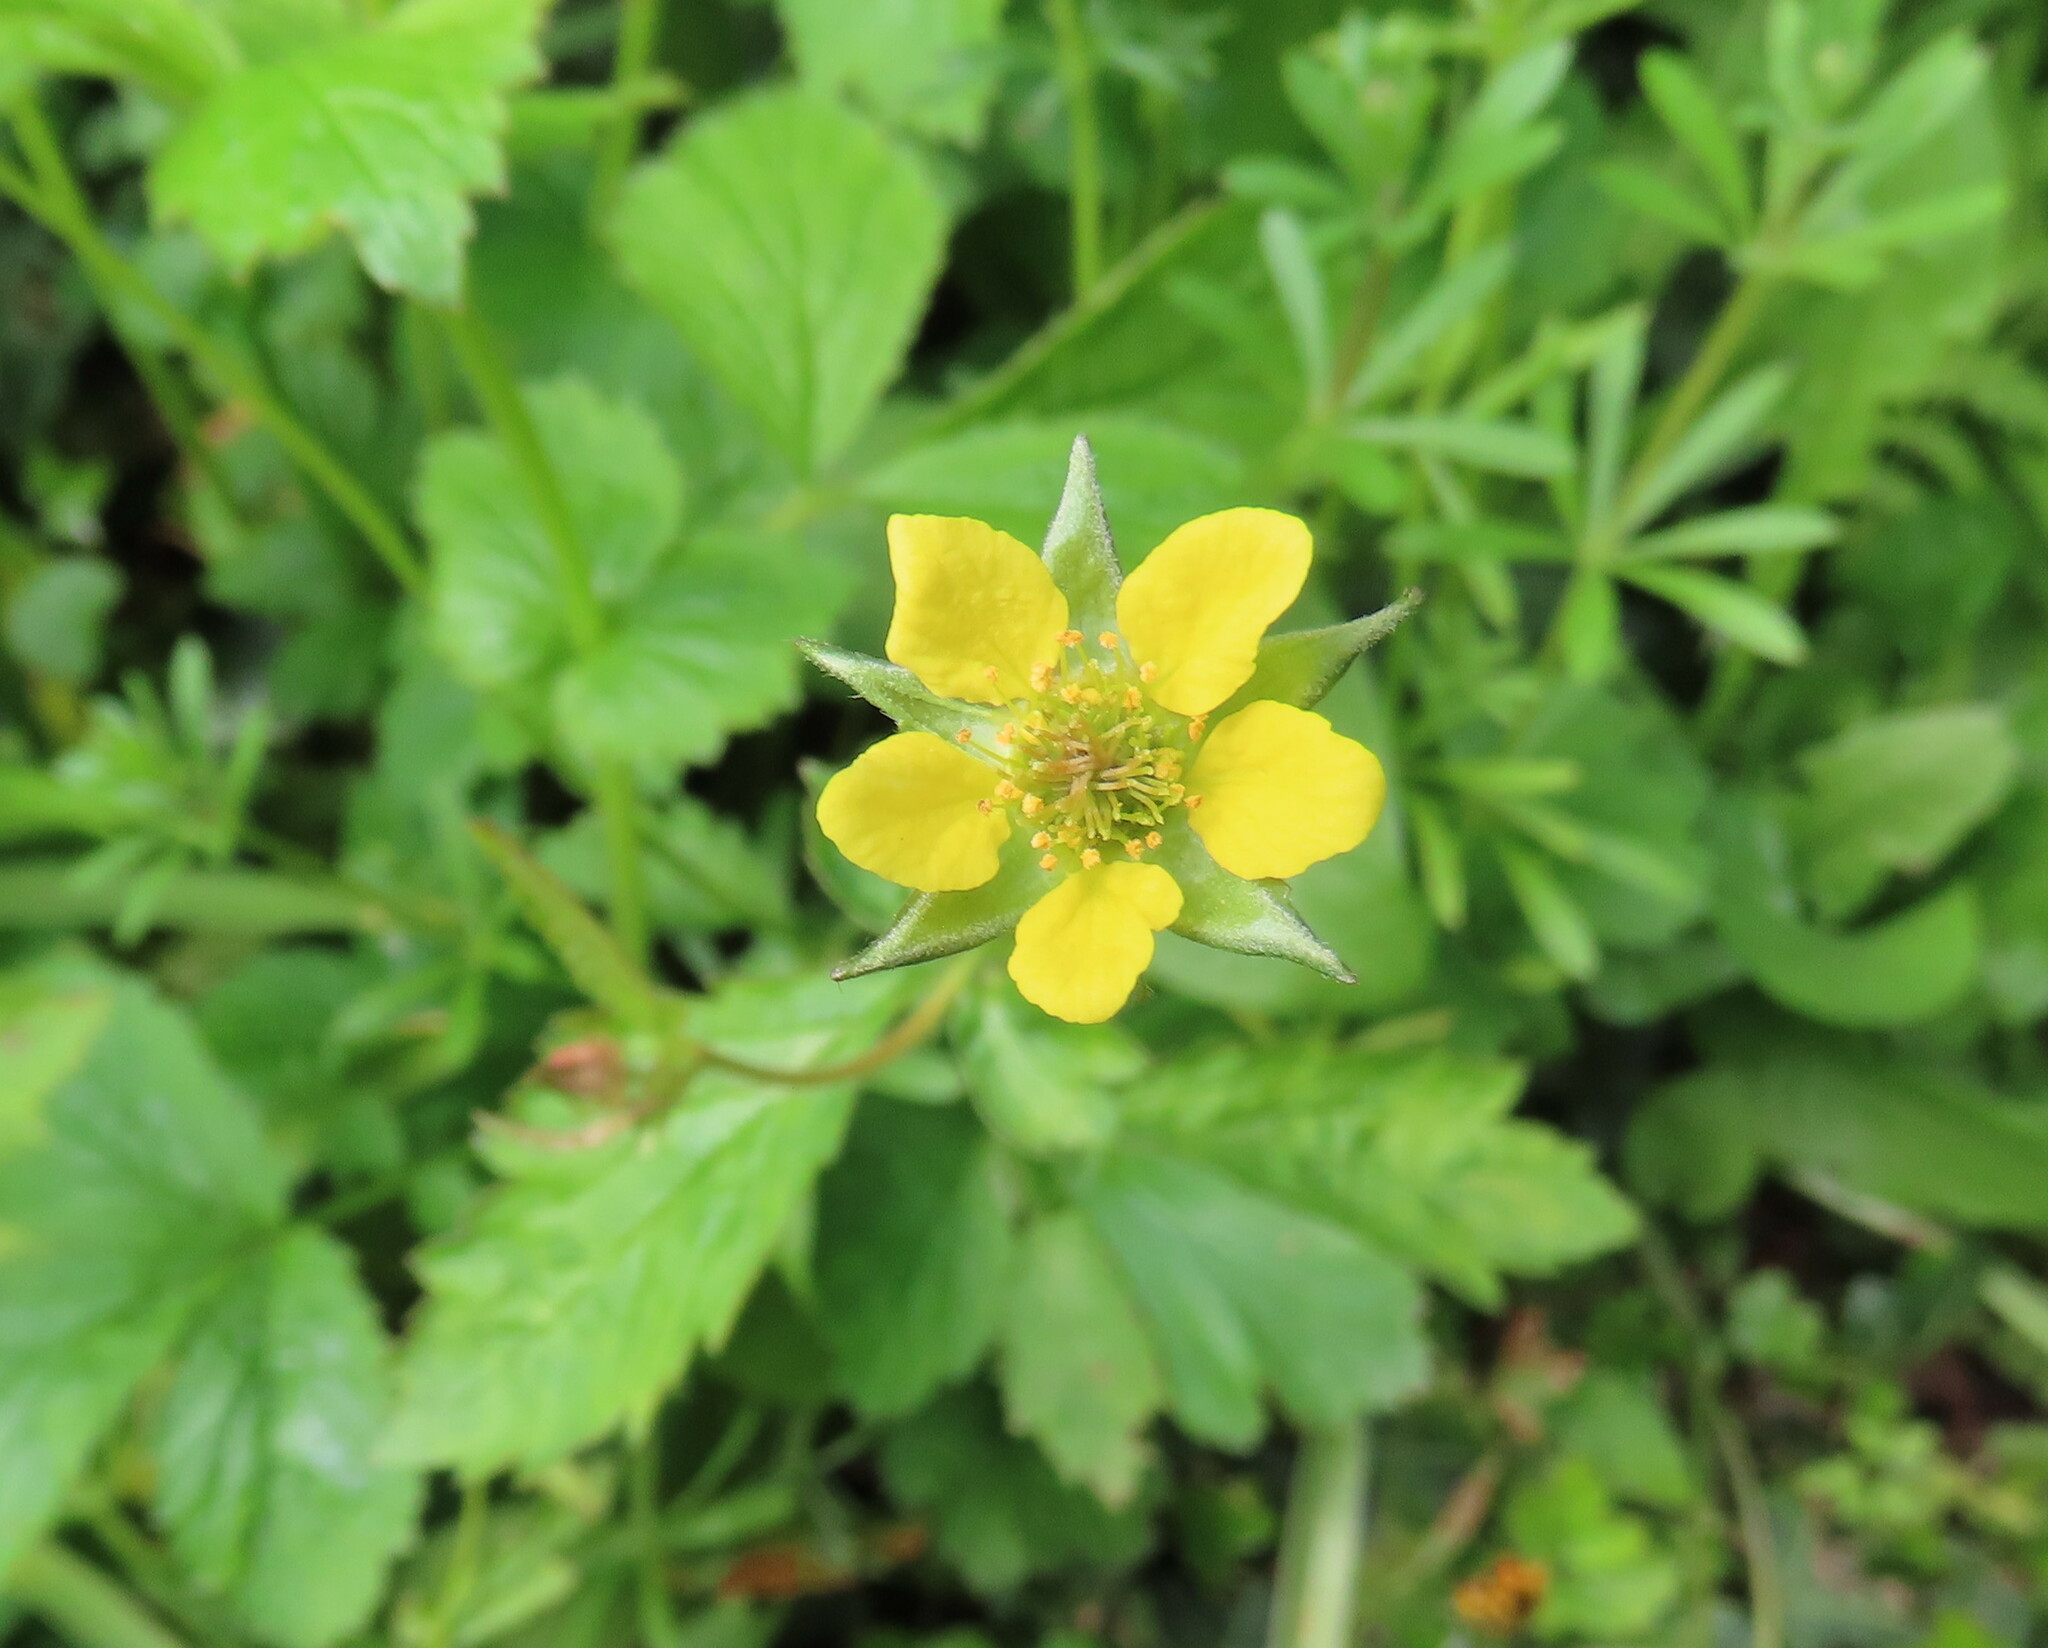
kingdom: Plantae
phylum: Tracheophyta
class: Magnoliopsida
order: Rosales
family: Rosaceae
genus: Geum
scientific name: Geum urbanum
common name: Wood avens
